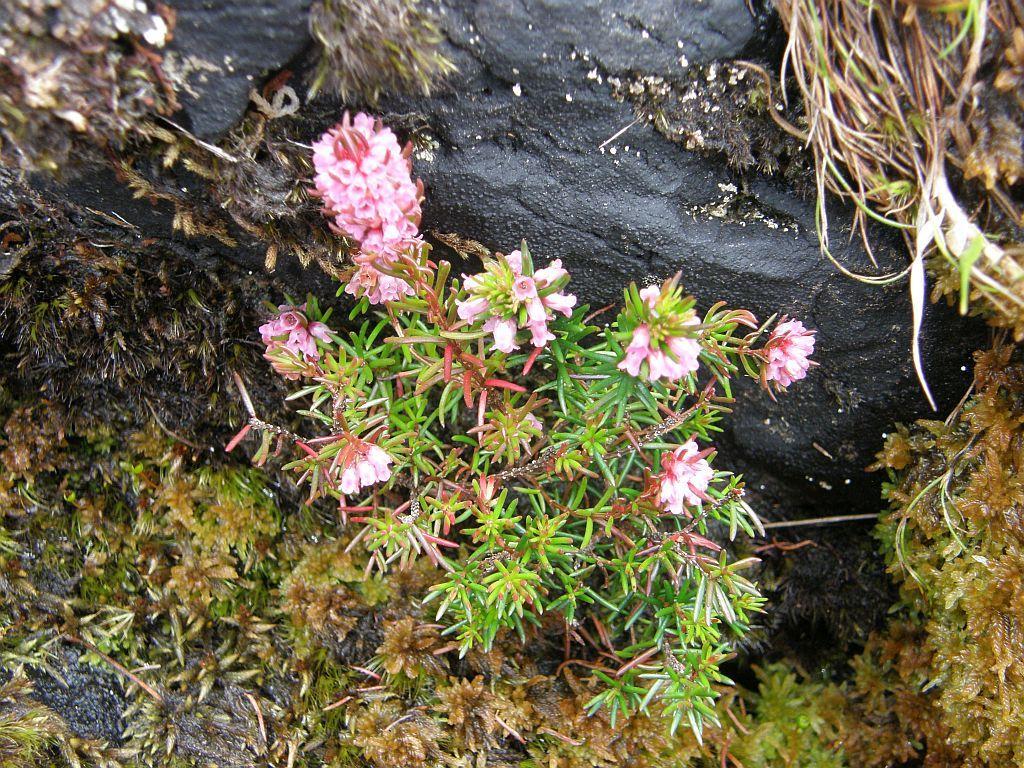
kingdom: Plantae
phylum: Tracheophyta
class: Magnoliopsida
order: Ericales
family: Ericaceae
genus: Erica
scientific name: Erica dodii
